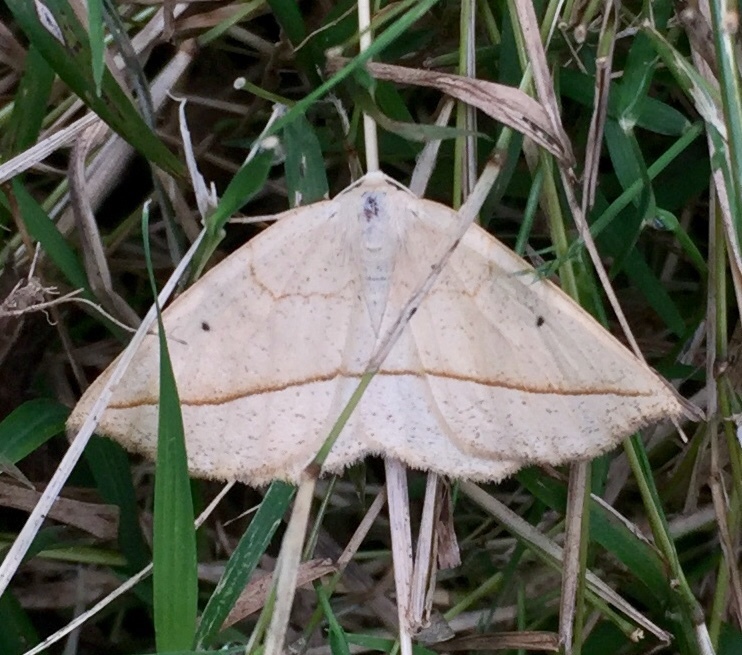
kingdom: Animalia
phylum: Arthropoda
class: Insecta
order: Lepidoptera
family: Geometridae
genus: Eusarca
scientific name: Eusarca confusaria
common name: Confused eusarca
